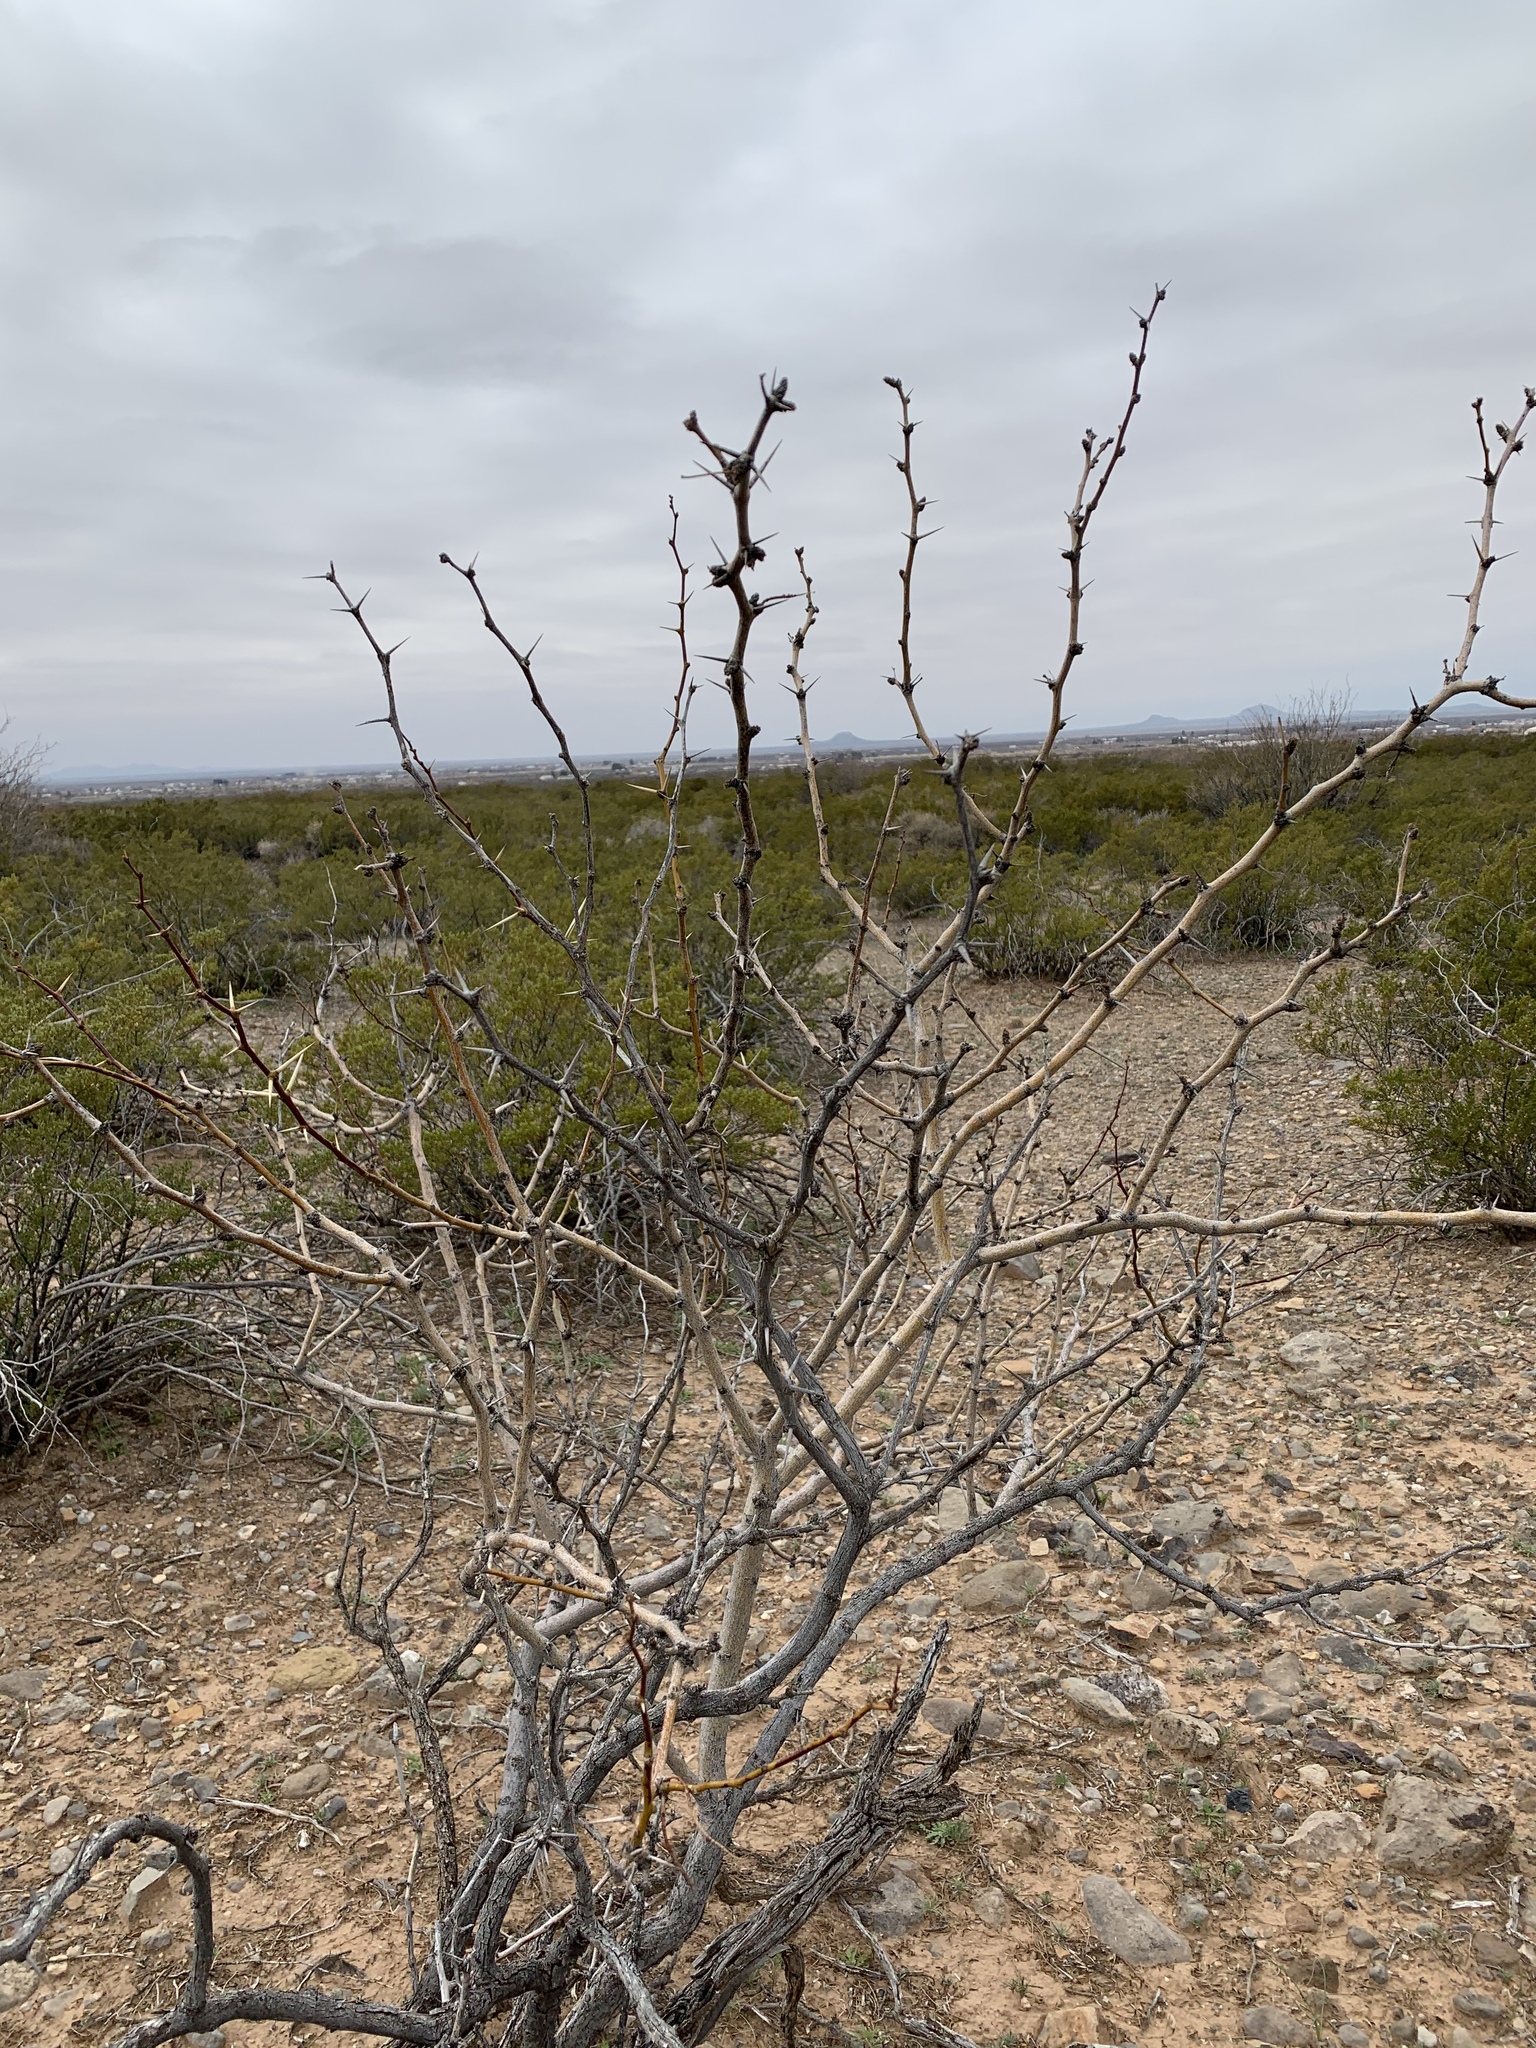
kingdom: Plantae
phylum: Tracheophyta
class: Magnoliopsida
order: Fabales
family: Fabaceae
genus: Prosopis
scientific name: Prosopis glandulosa
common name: Honey mesquite
